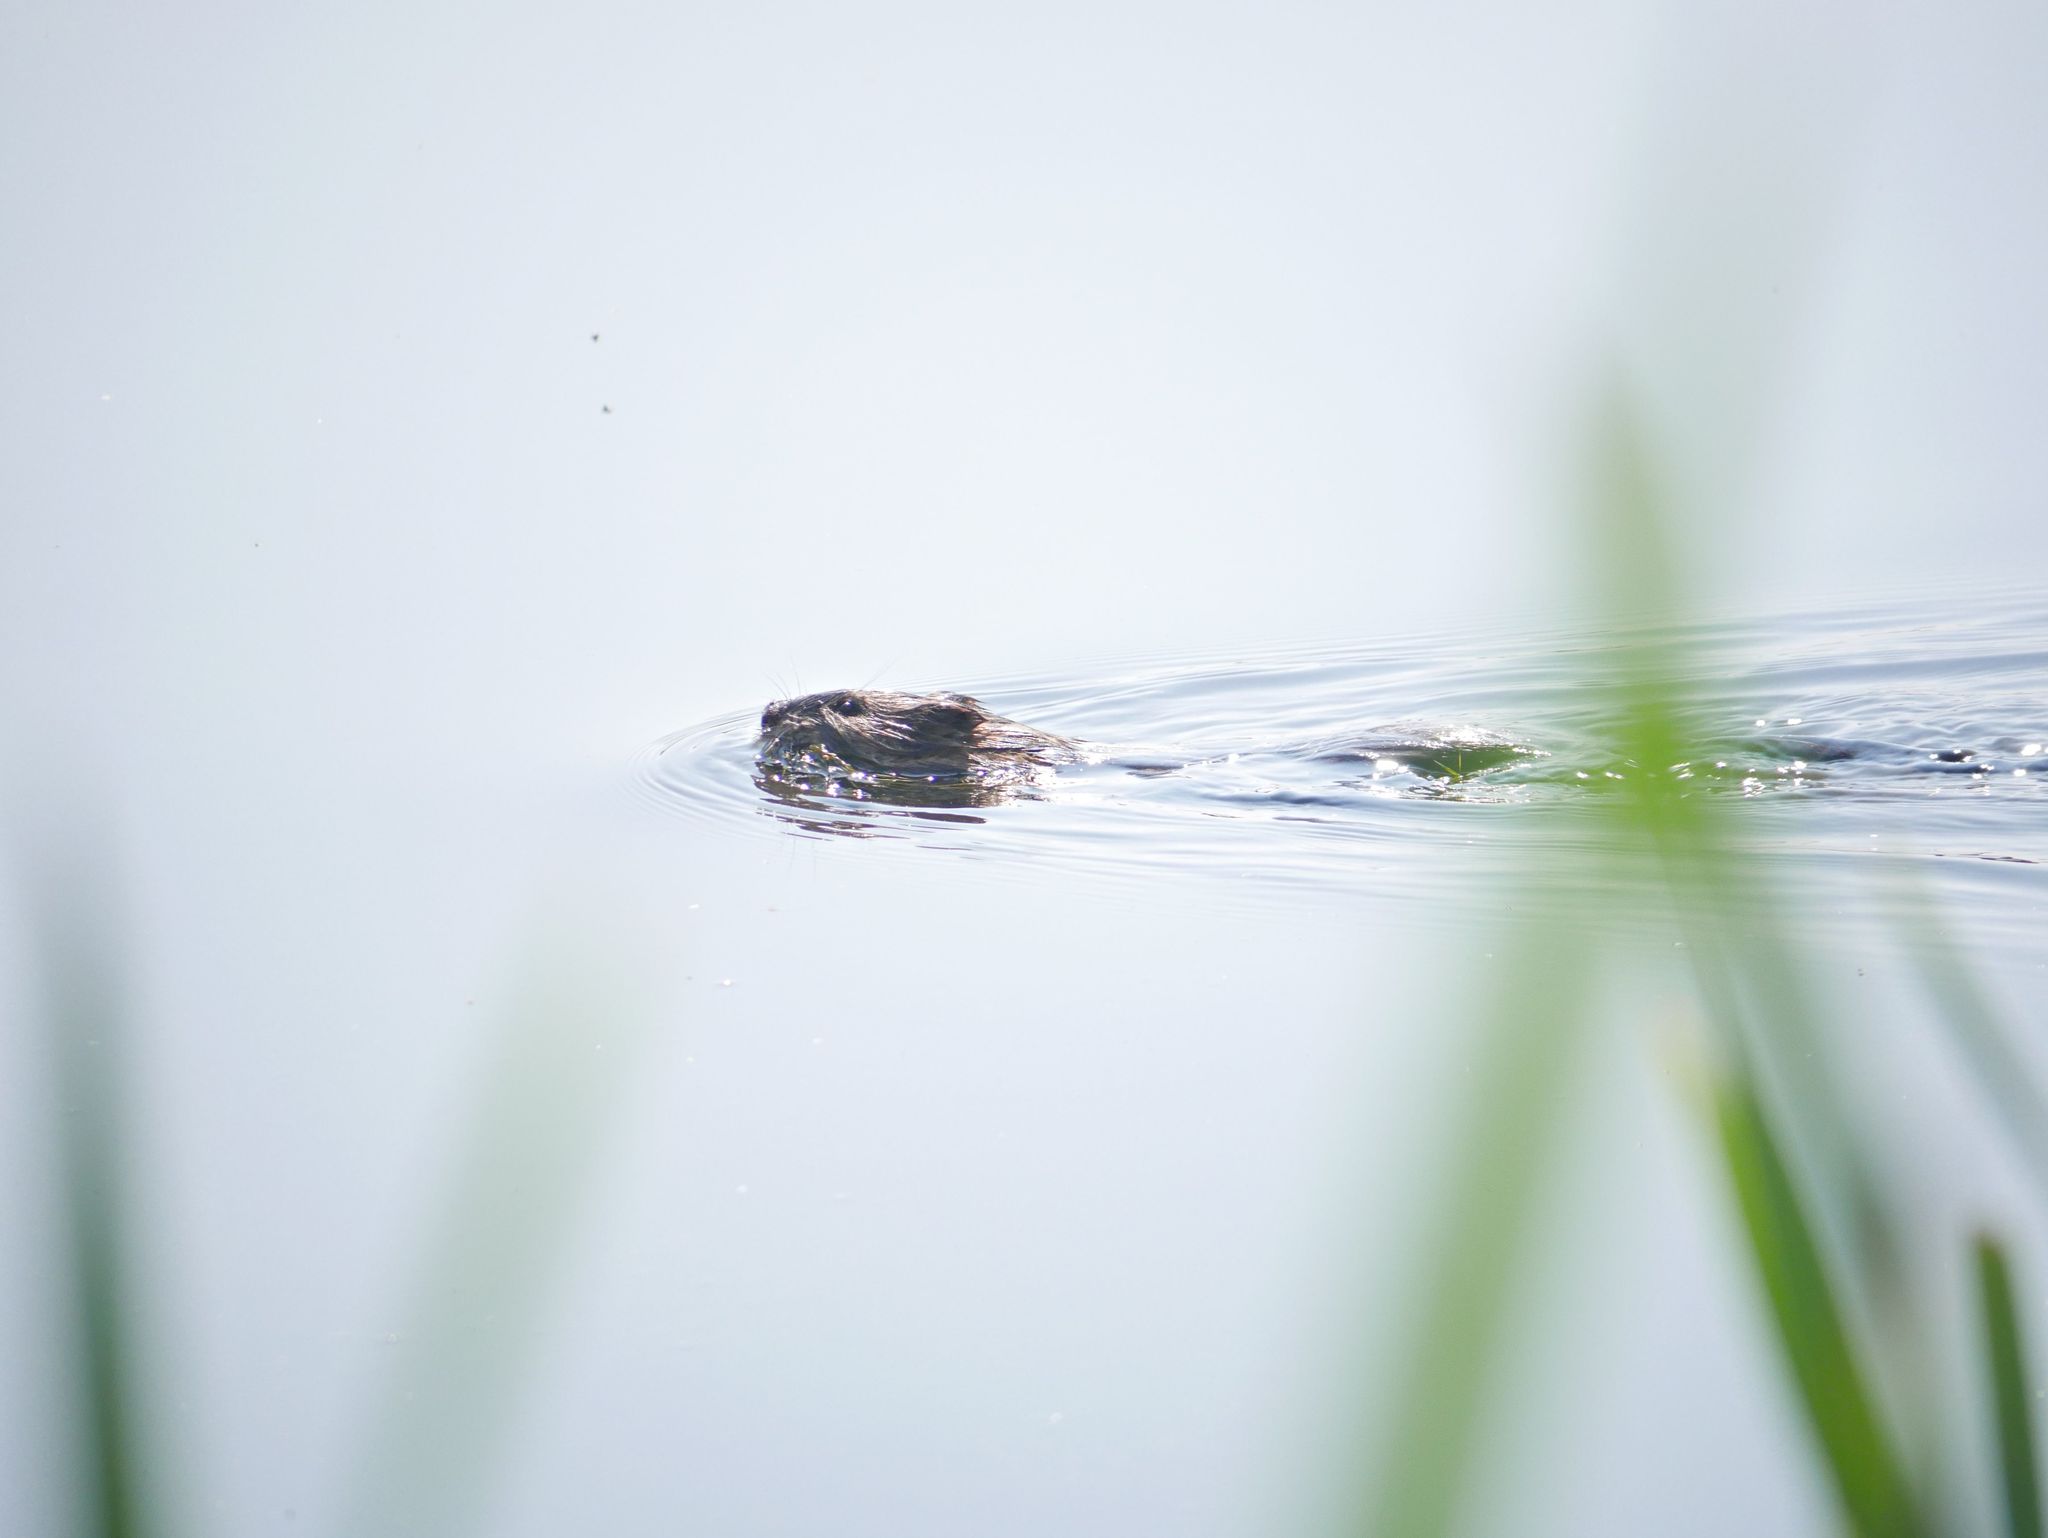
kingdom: Animalia
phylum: Chordata
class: Mammalia
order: Rodentia
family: Cricetidae
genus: Ondatra
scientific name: Ondatra zibethicus
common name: Muskrat
